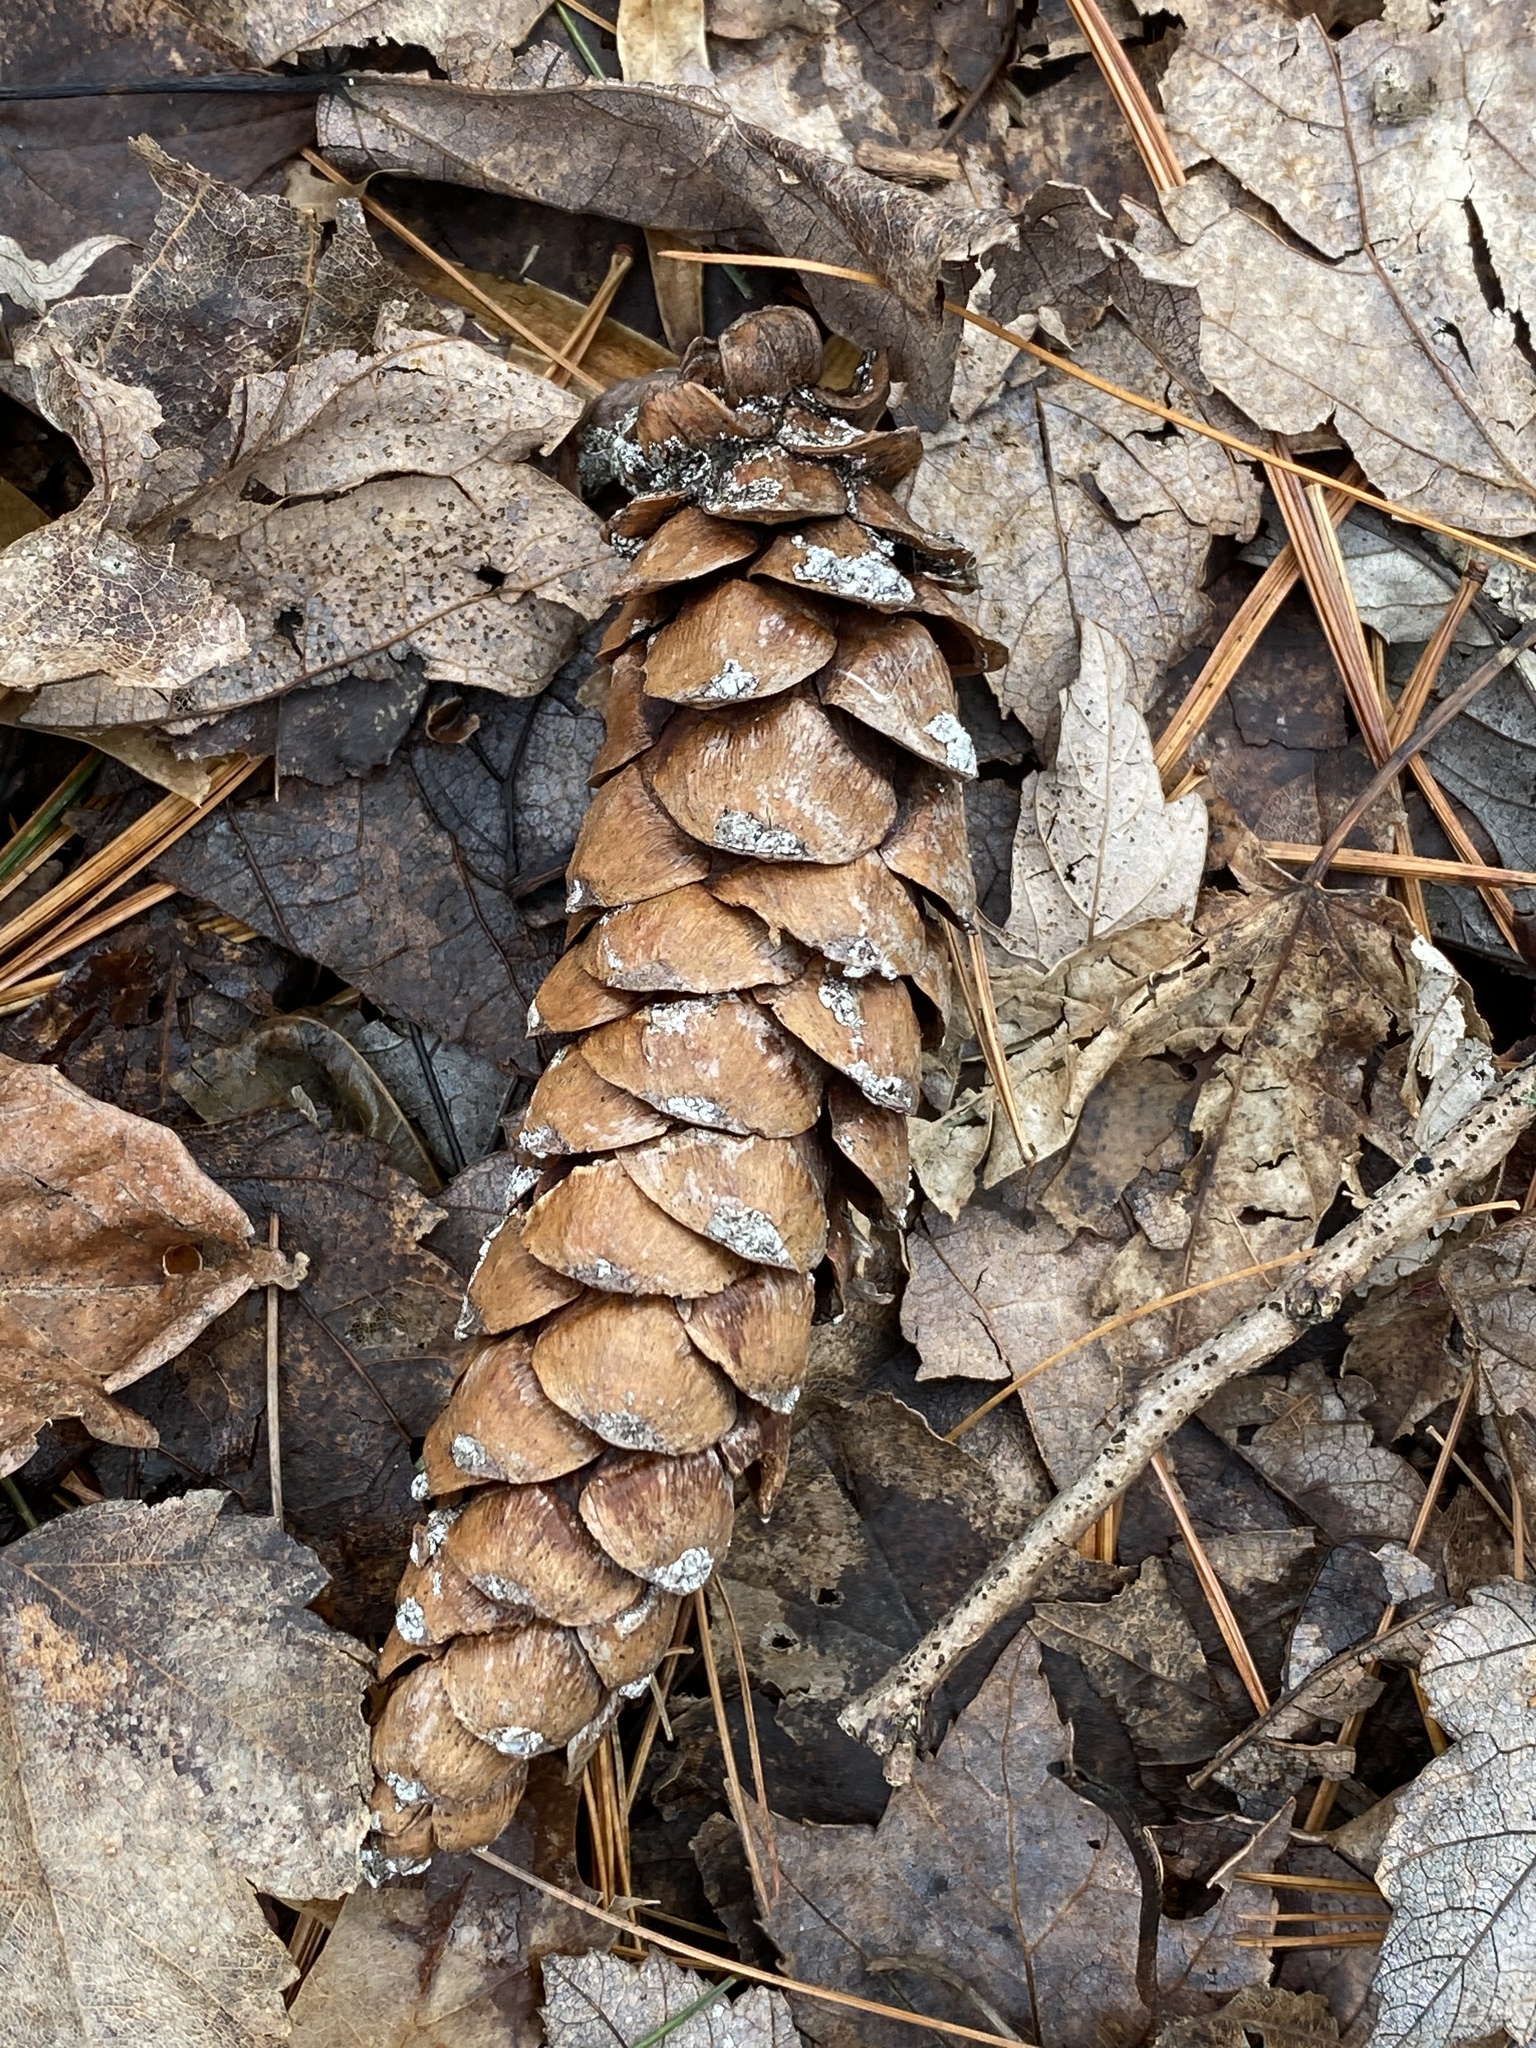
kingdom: Plantae
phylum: Tracheophyta
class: Pinopsida
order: Pinales
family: Pinaceae
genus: Pinus
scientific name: Pinus strobus
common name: Weymouth pine
